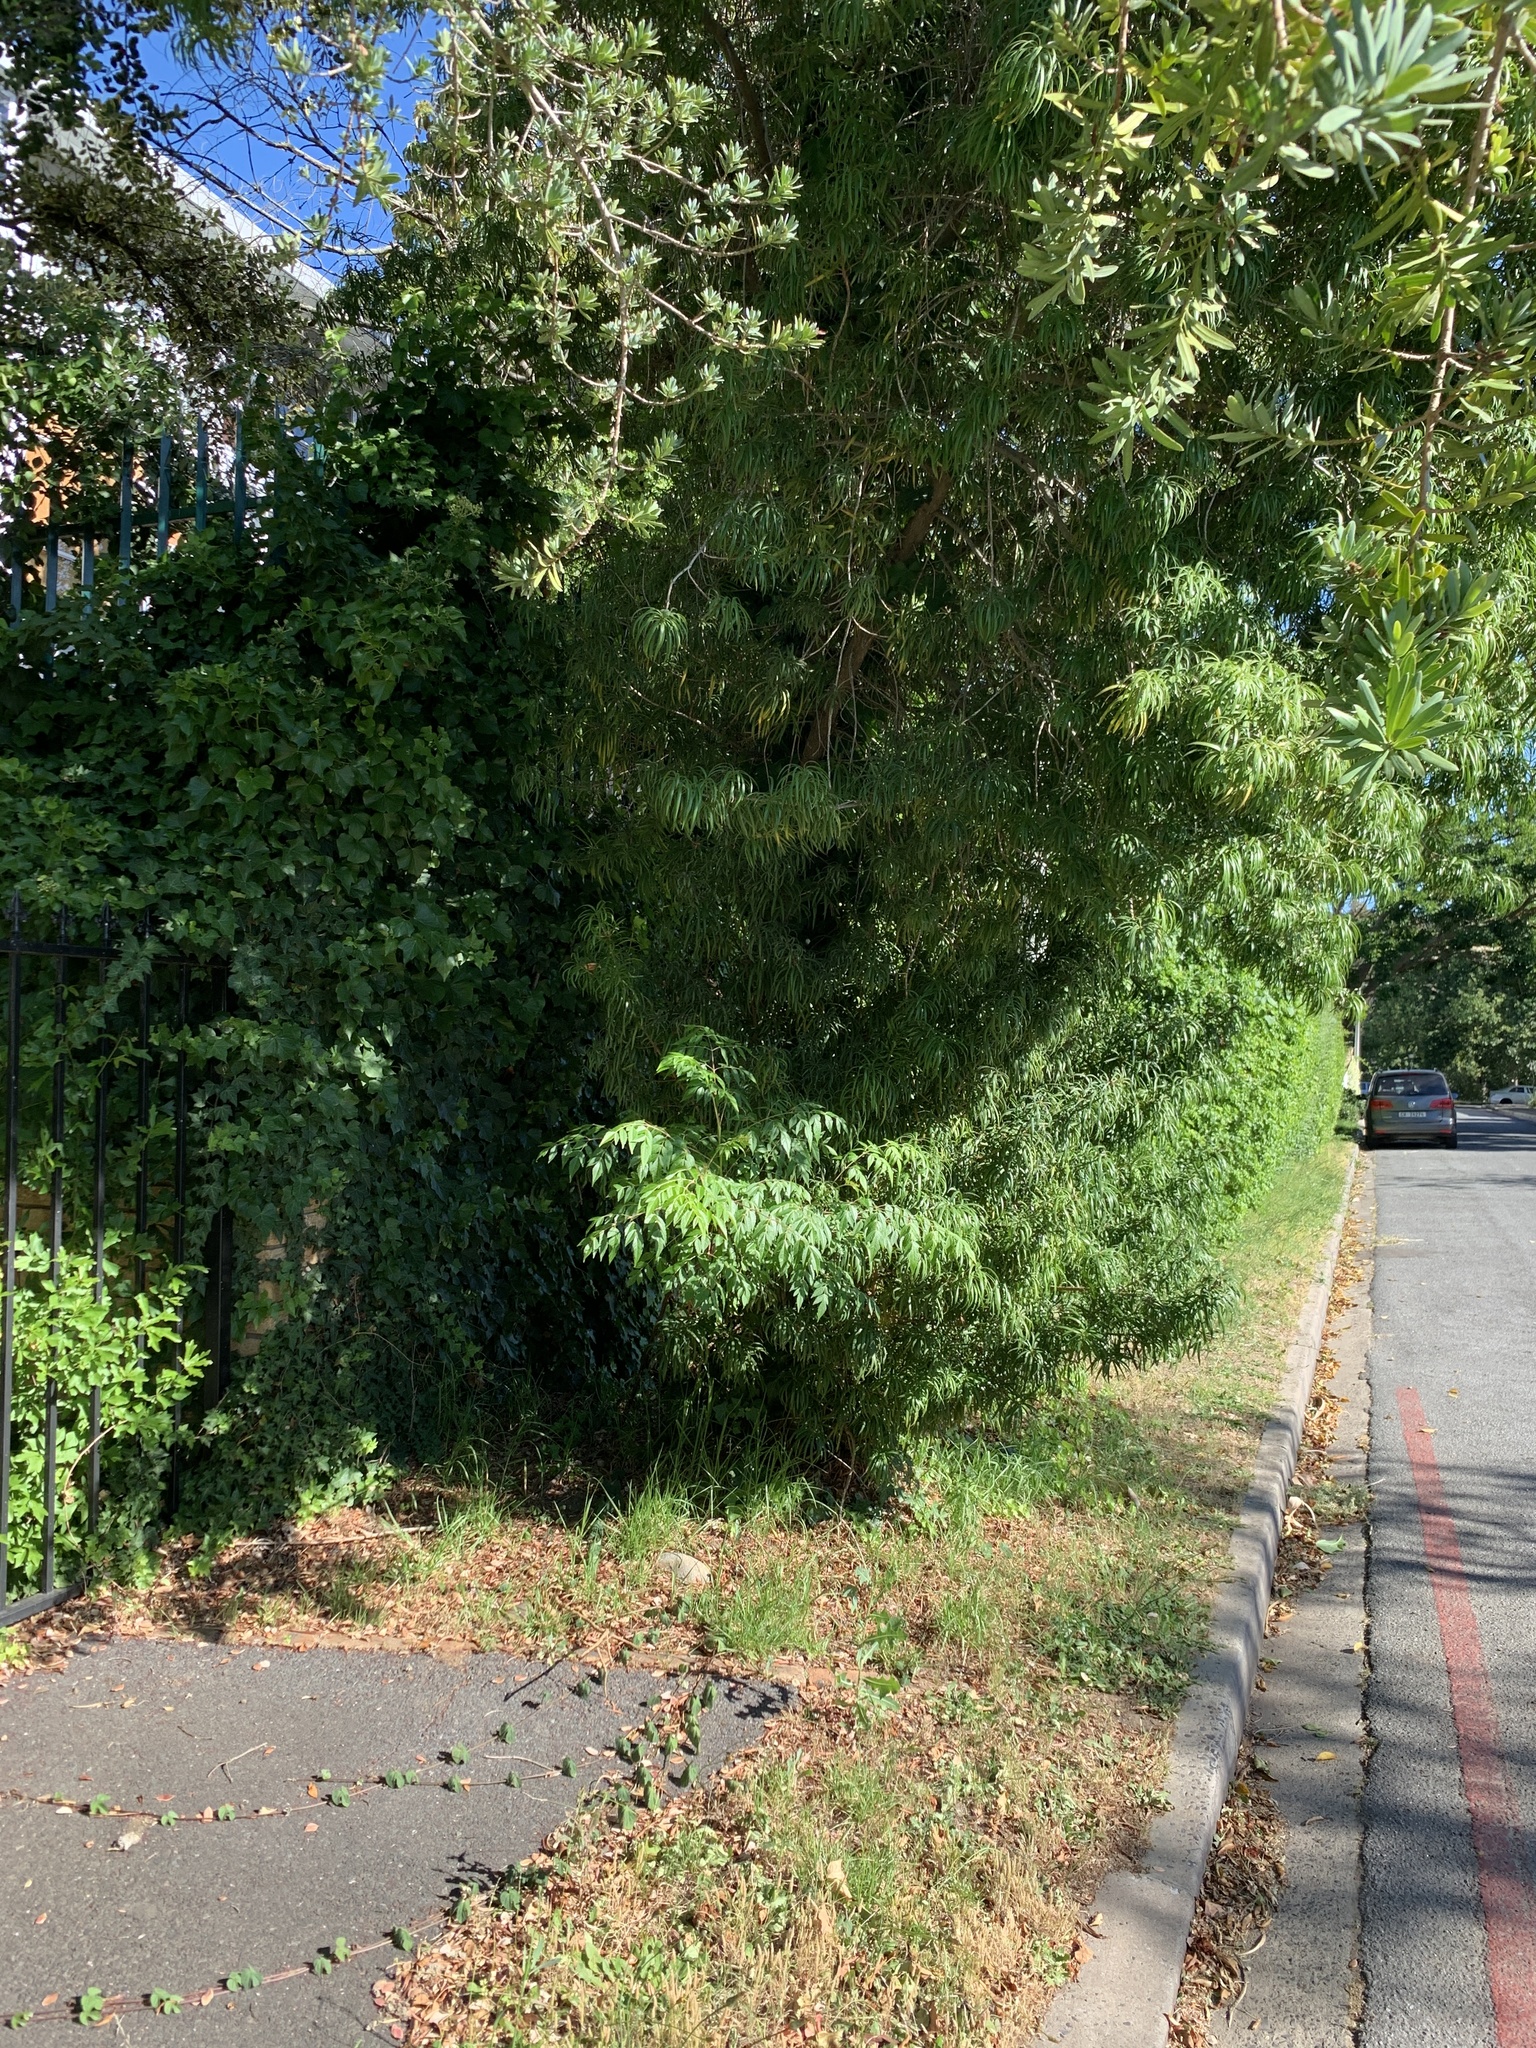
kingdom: Plantae
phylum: Tracheophyta
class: Magnoliopsida
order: Sapindales
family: Meliaceae
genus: Melia
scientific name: Melia azedarach
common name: Chinaberrytree
